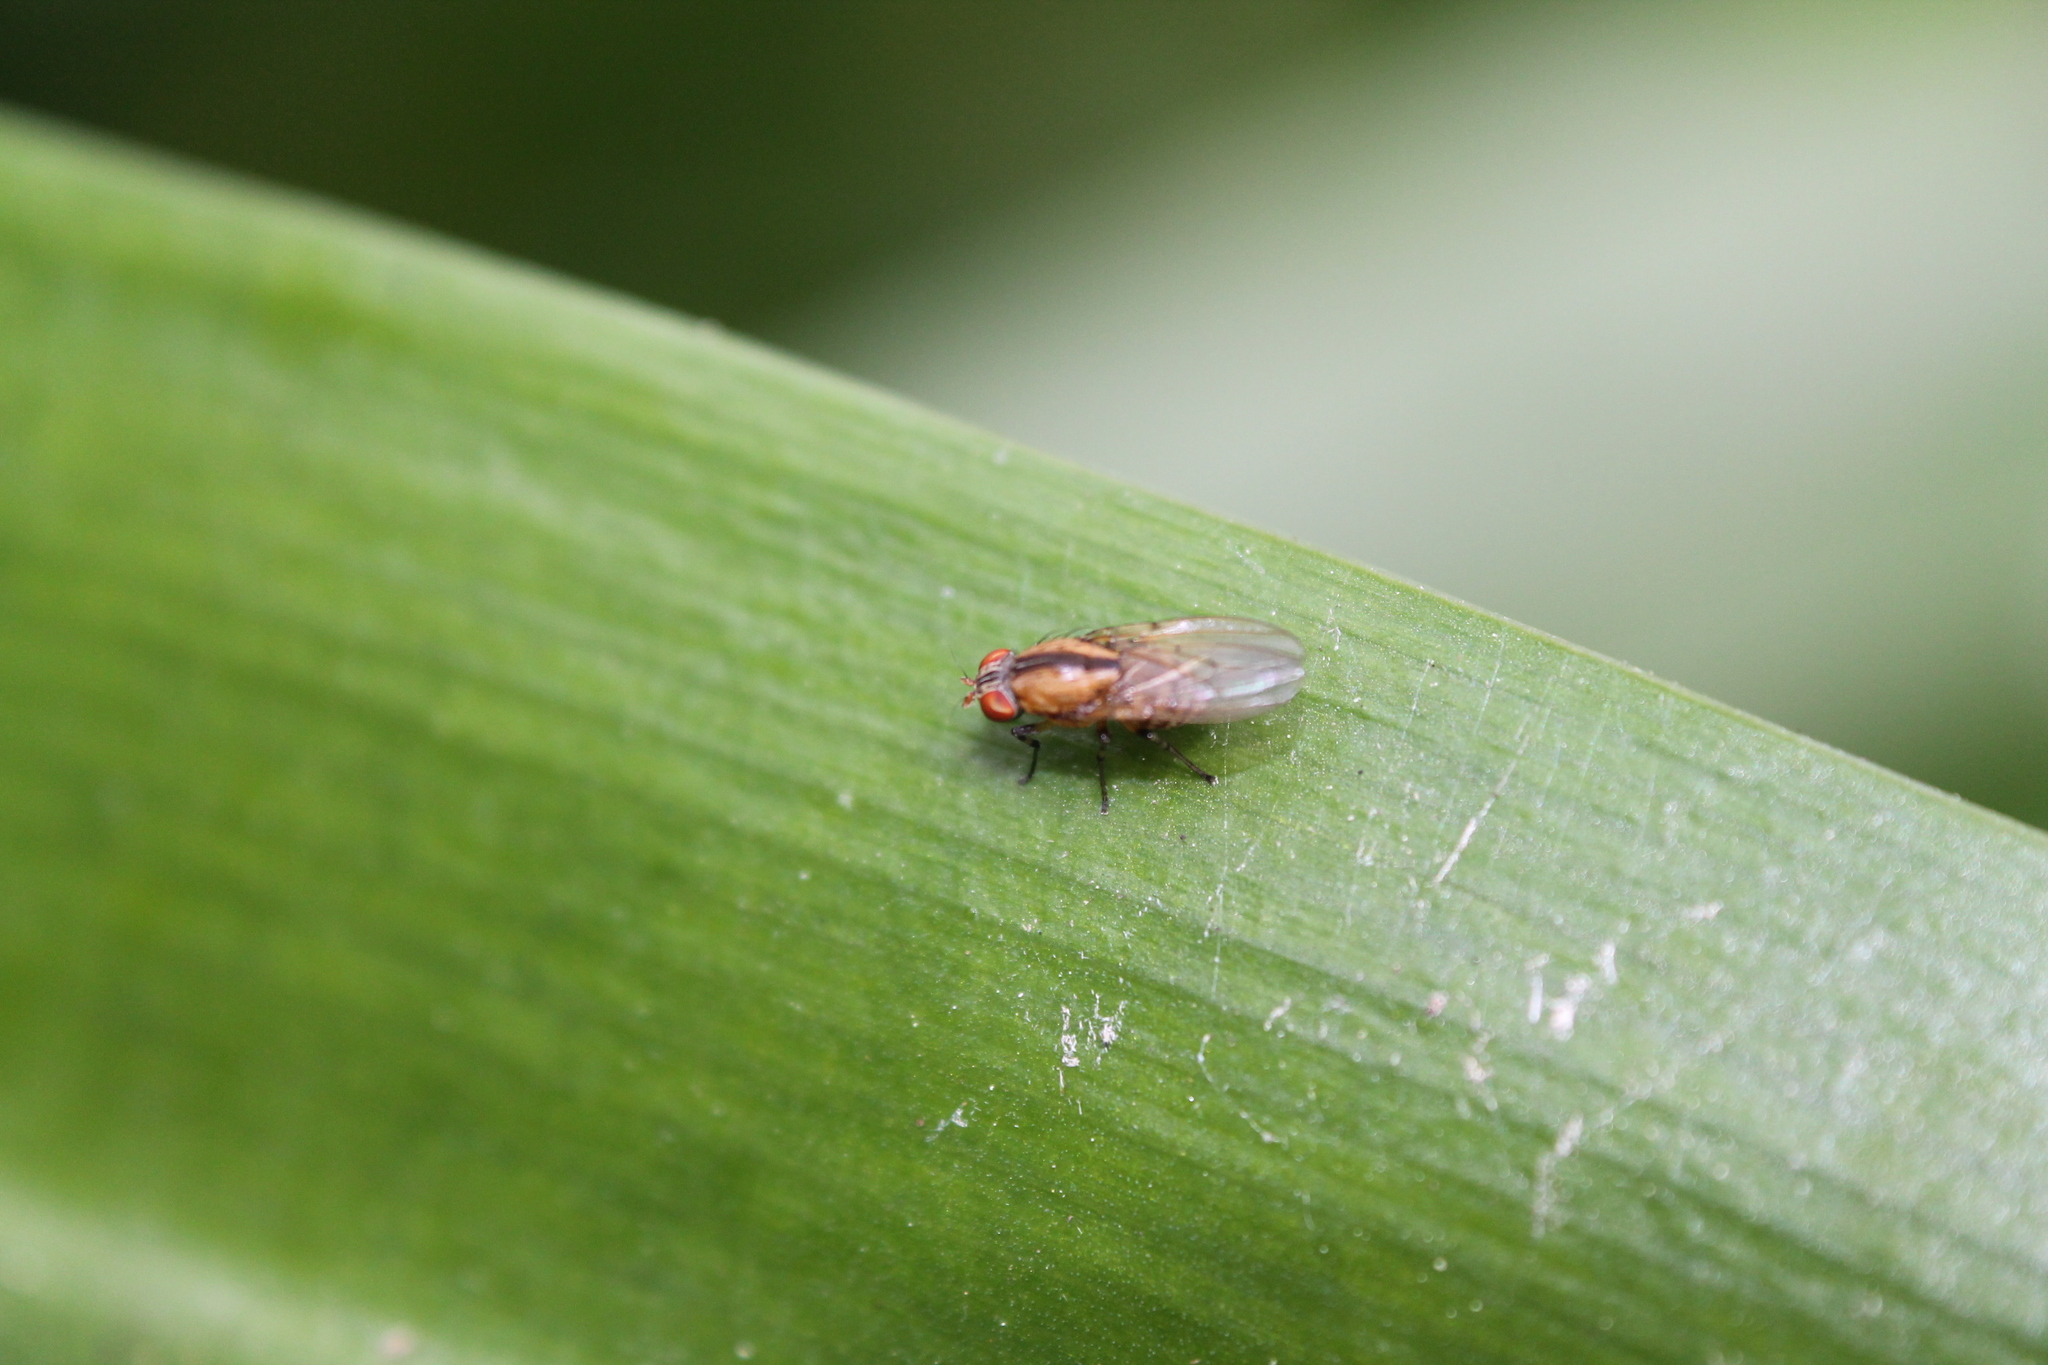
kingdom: Animalia
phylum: Arthropoda
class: Insecta
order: Diptera
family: Lauxaniidae
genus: Sapromyza
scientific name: Sapromyza neozelandica
